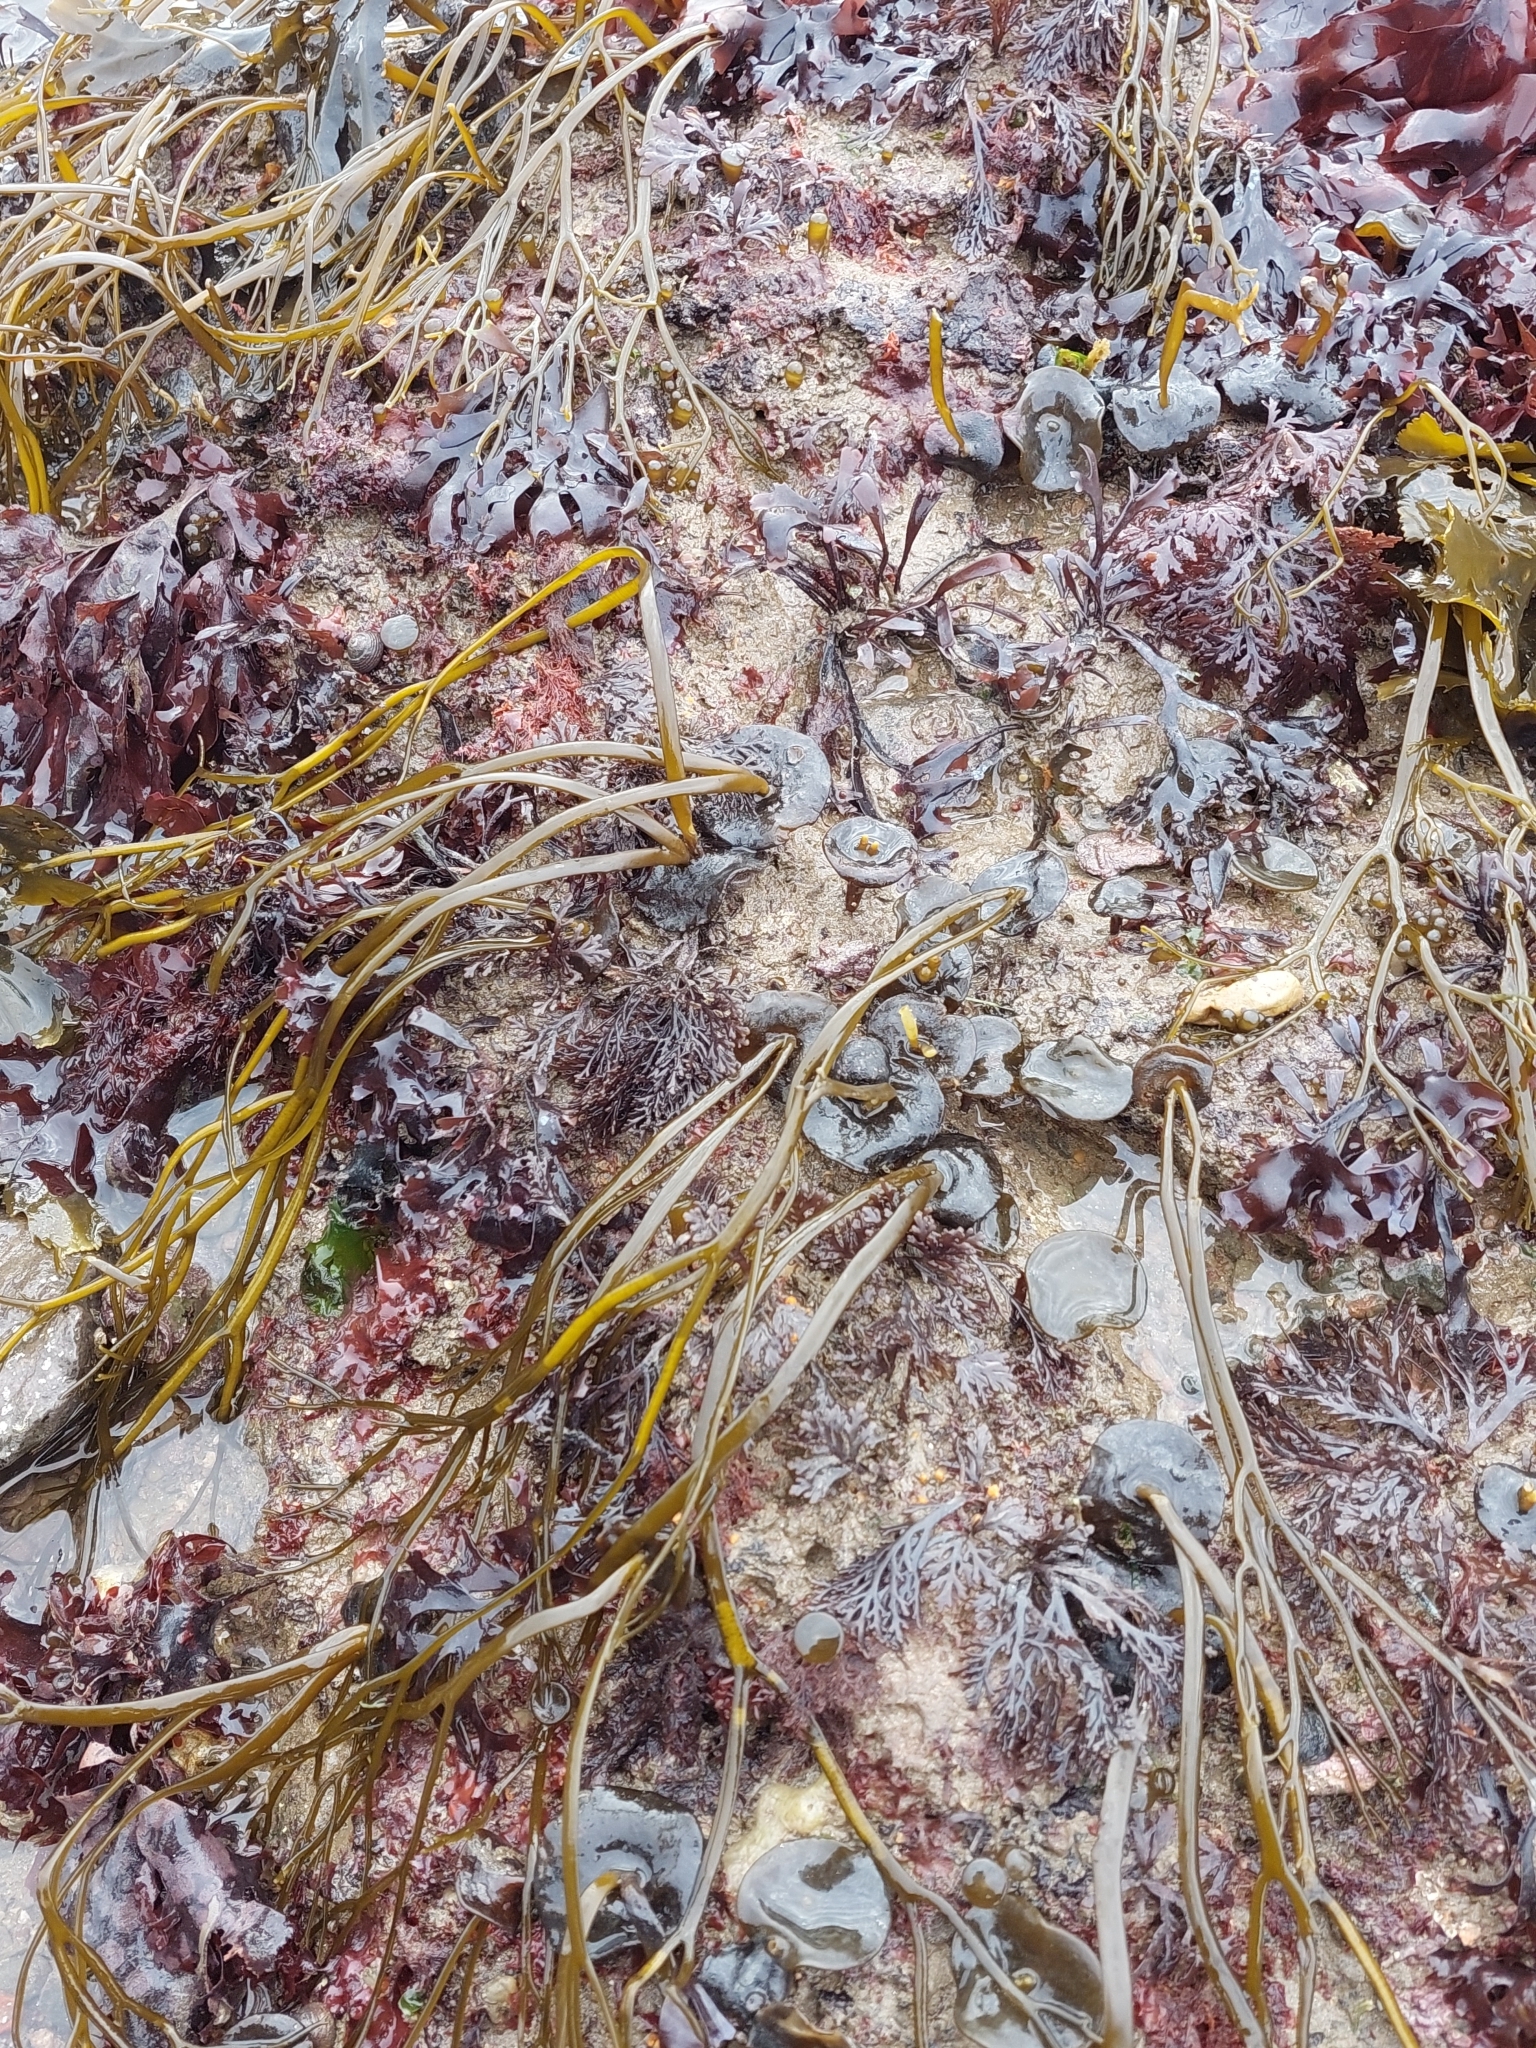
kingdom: Chromista
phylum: Ochrophyta
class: Phaeophyceae
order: Fucales
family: Himanthaliaceae
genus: Himanthalia
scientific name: Himanthalia elongata
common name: Sea-thong
